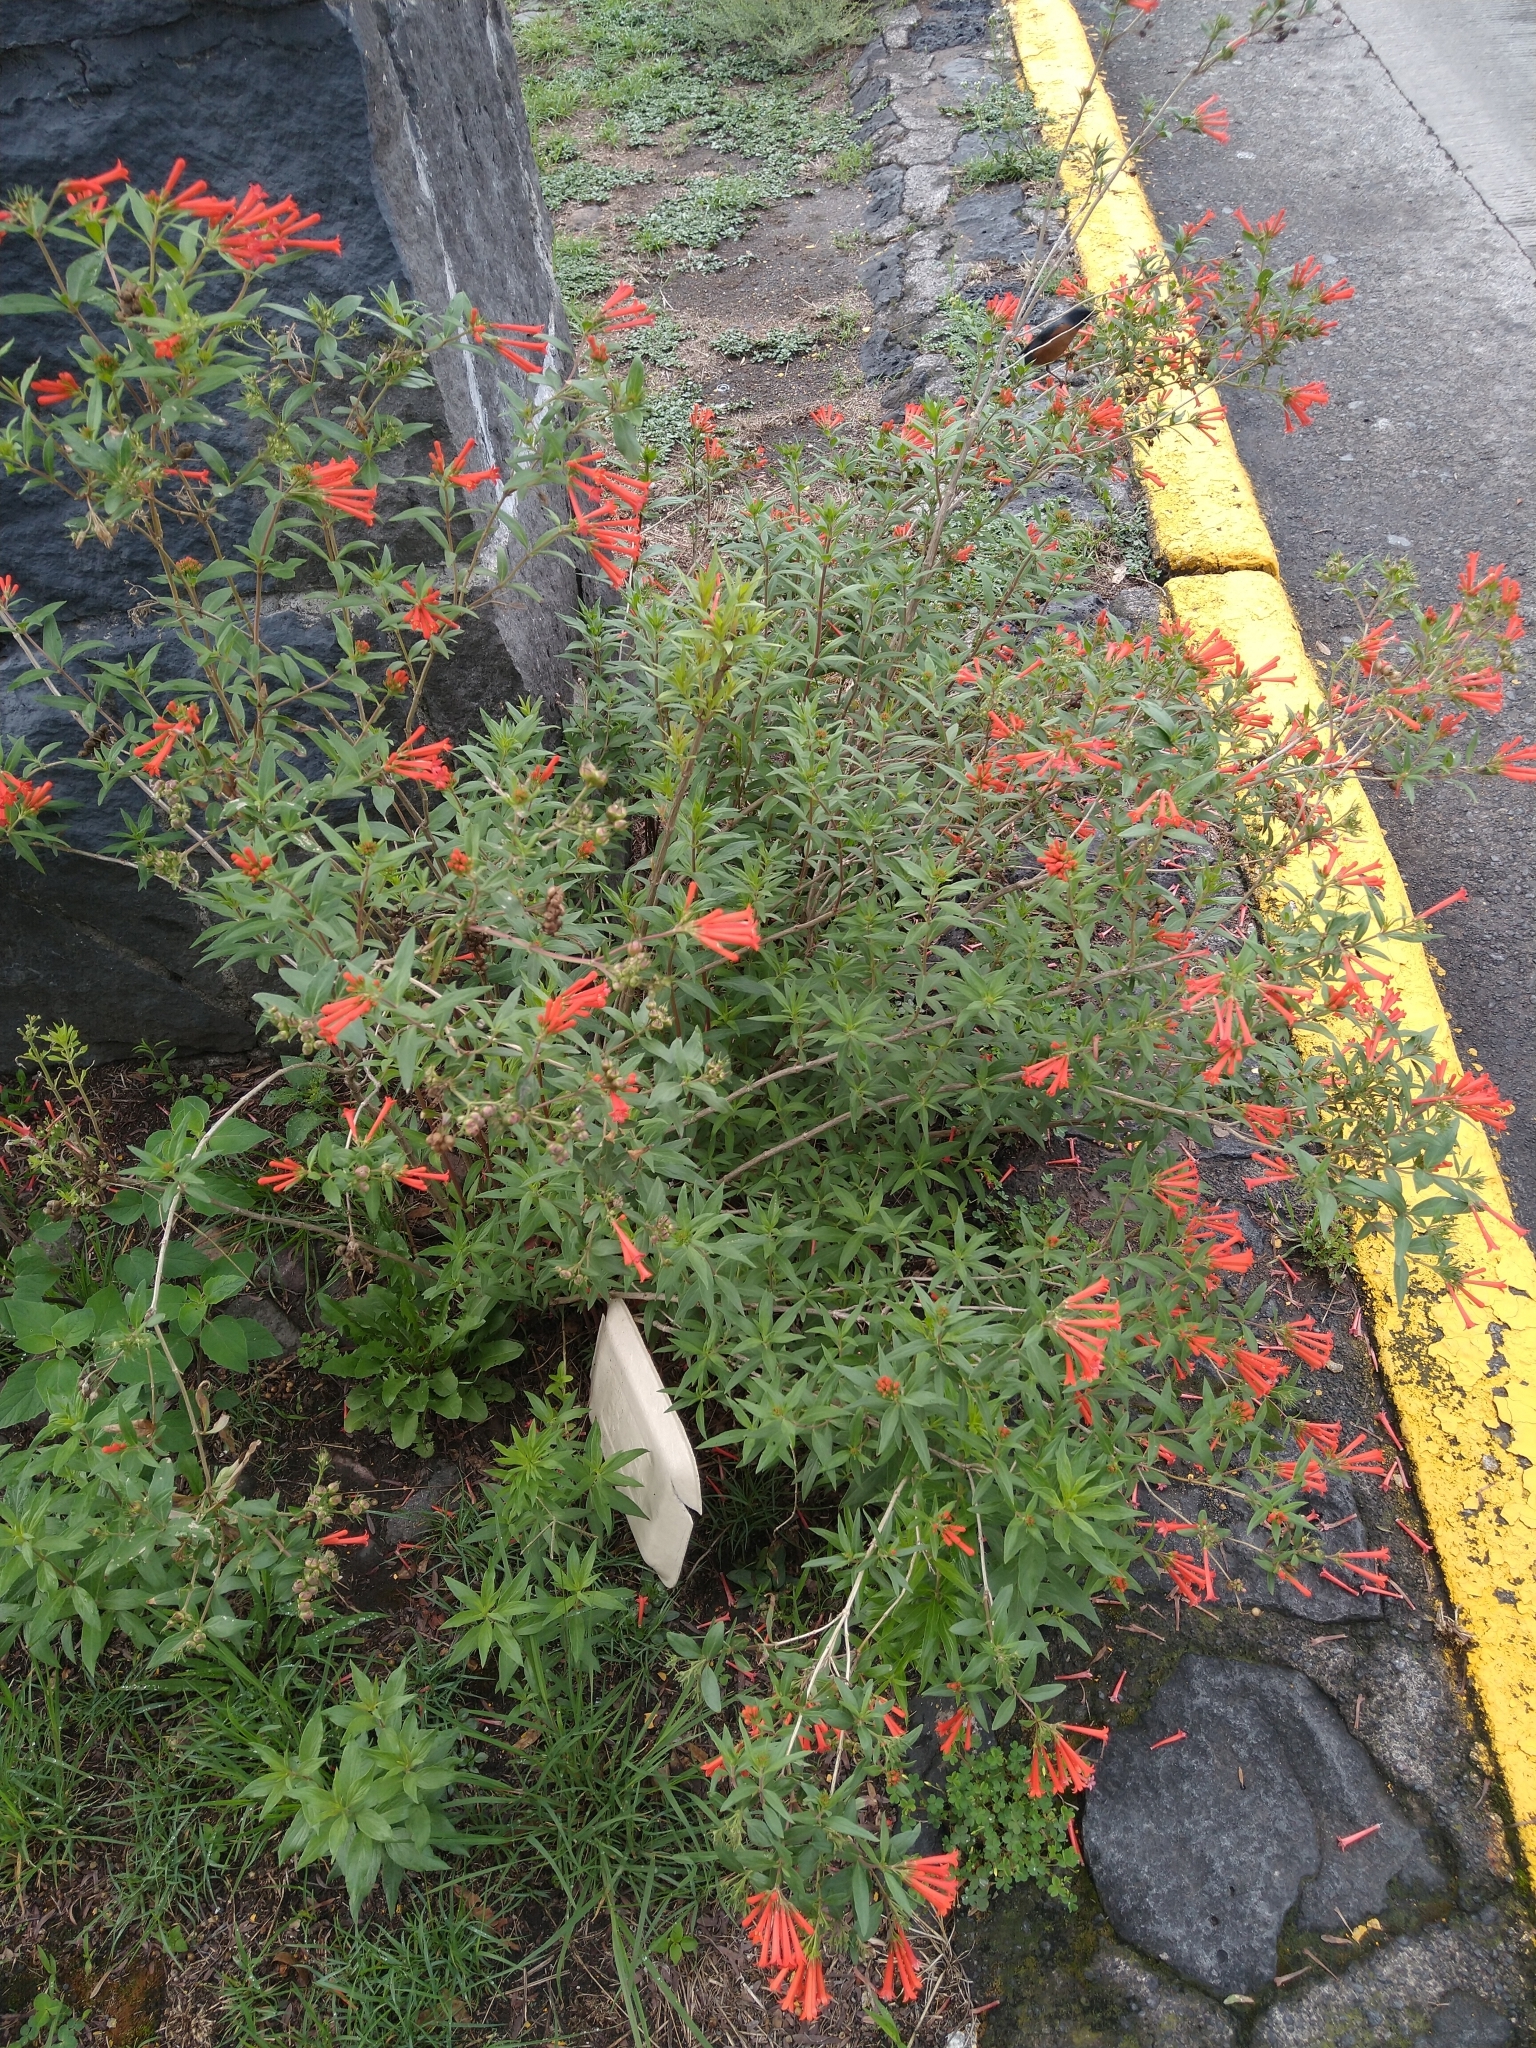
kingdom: Plantae
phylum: Tracheophyta
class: Magnoliopsida
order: Gentianales
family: Rubiaceae
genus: Bouvardia
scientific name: Bouvardia ternifolia
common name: Scarlet bouvardia
